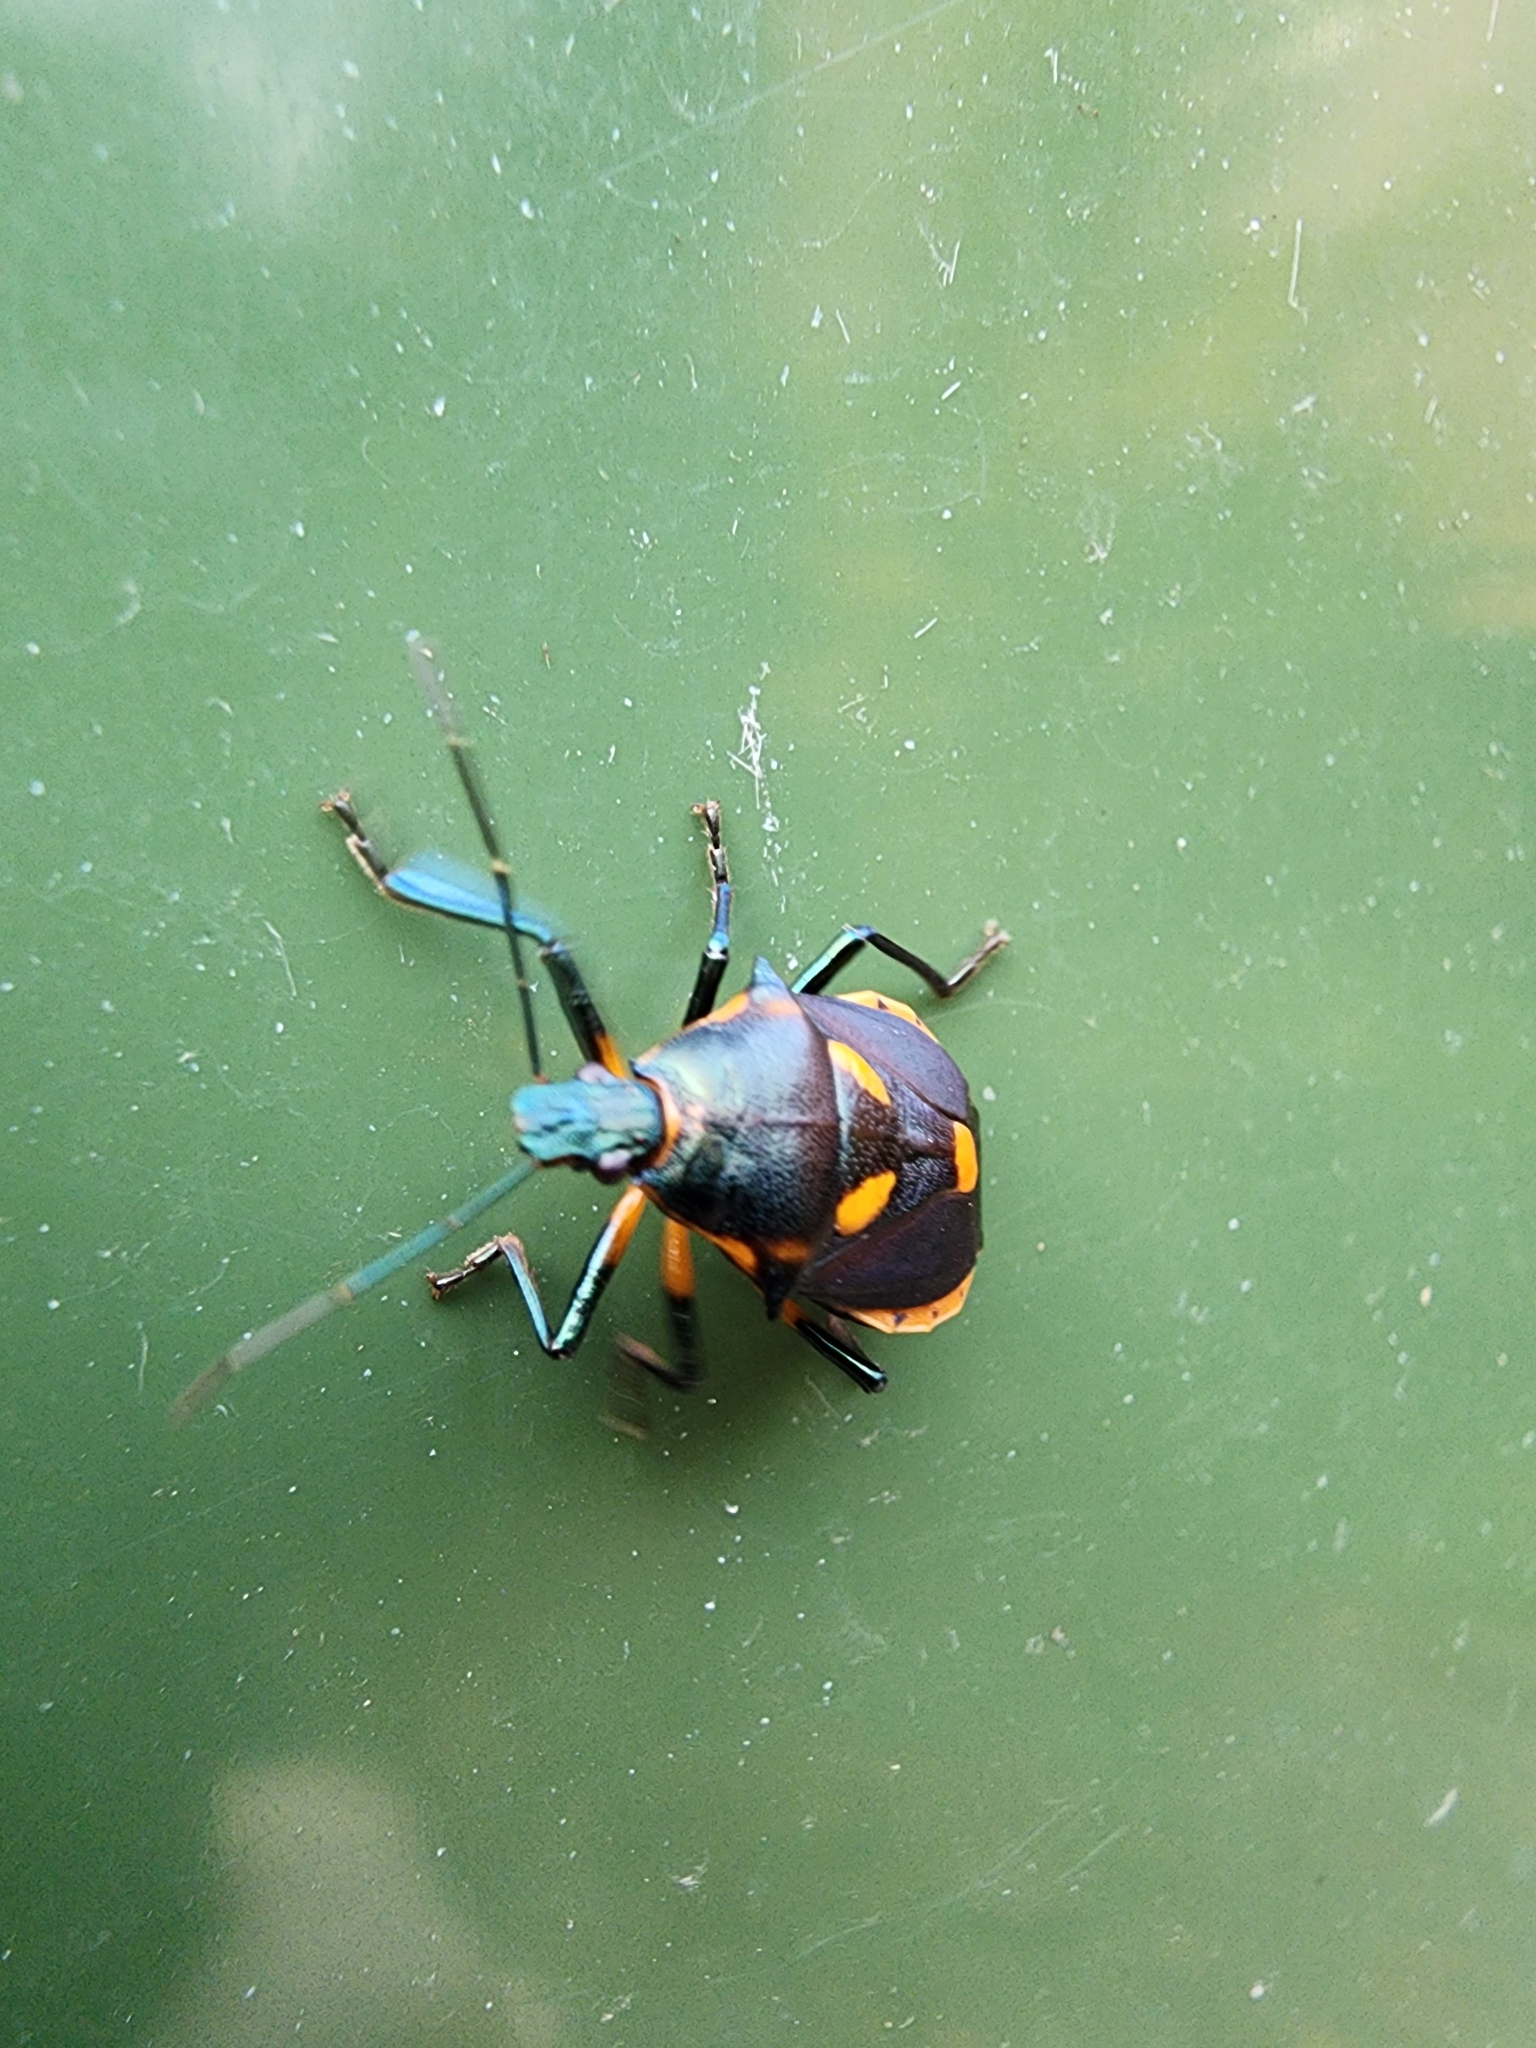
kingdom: Animalia
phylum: Arthropoda
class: Insecta
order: Hemiptera
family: Pentatomidae
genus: Euthyrhynchus
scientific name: Euthyrhynchus floridanus
